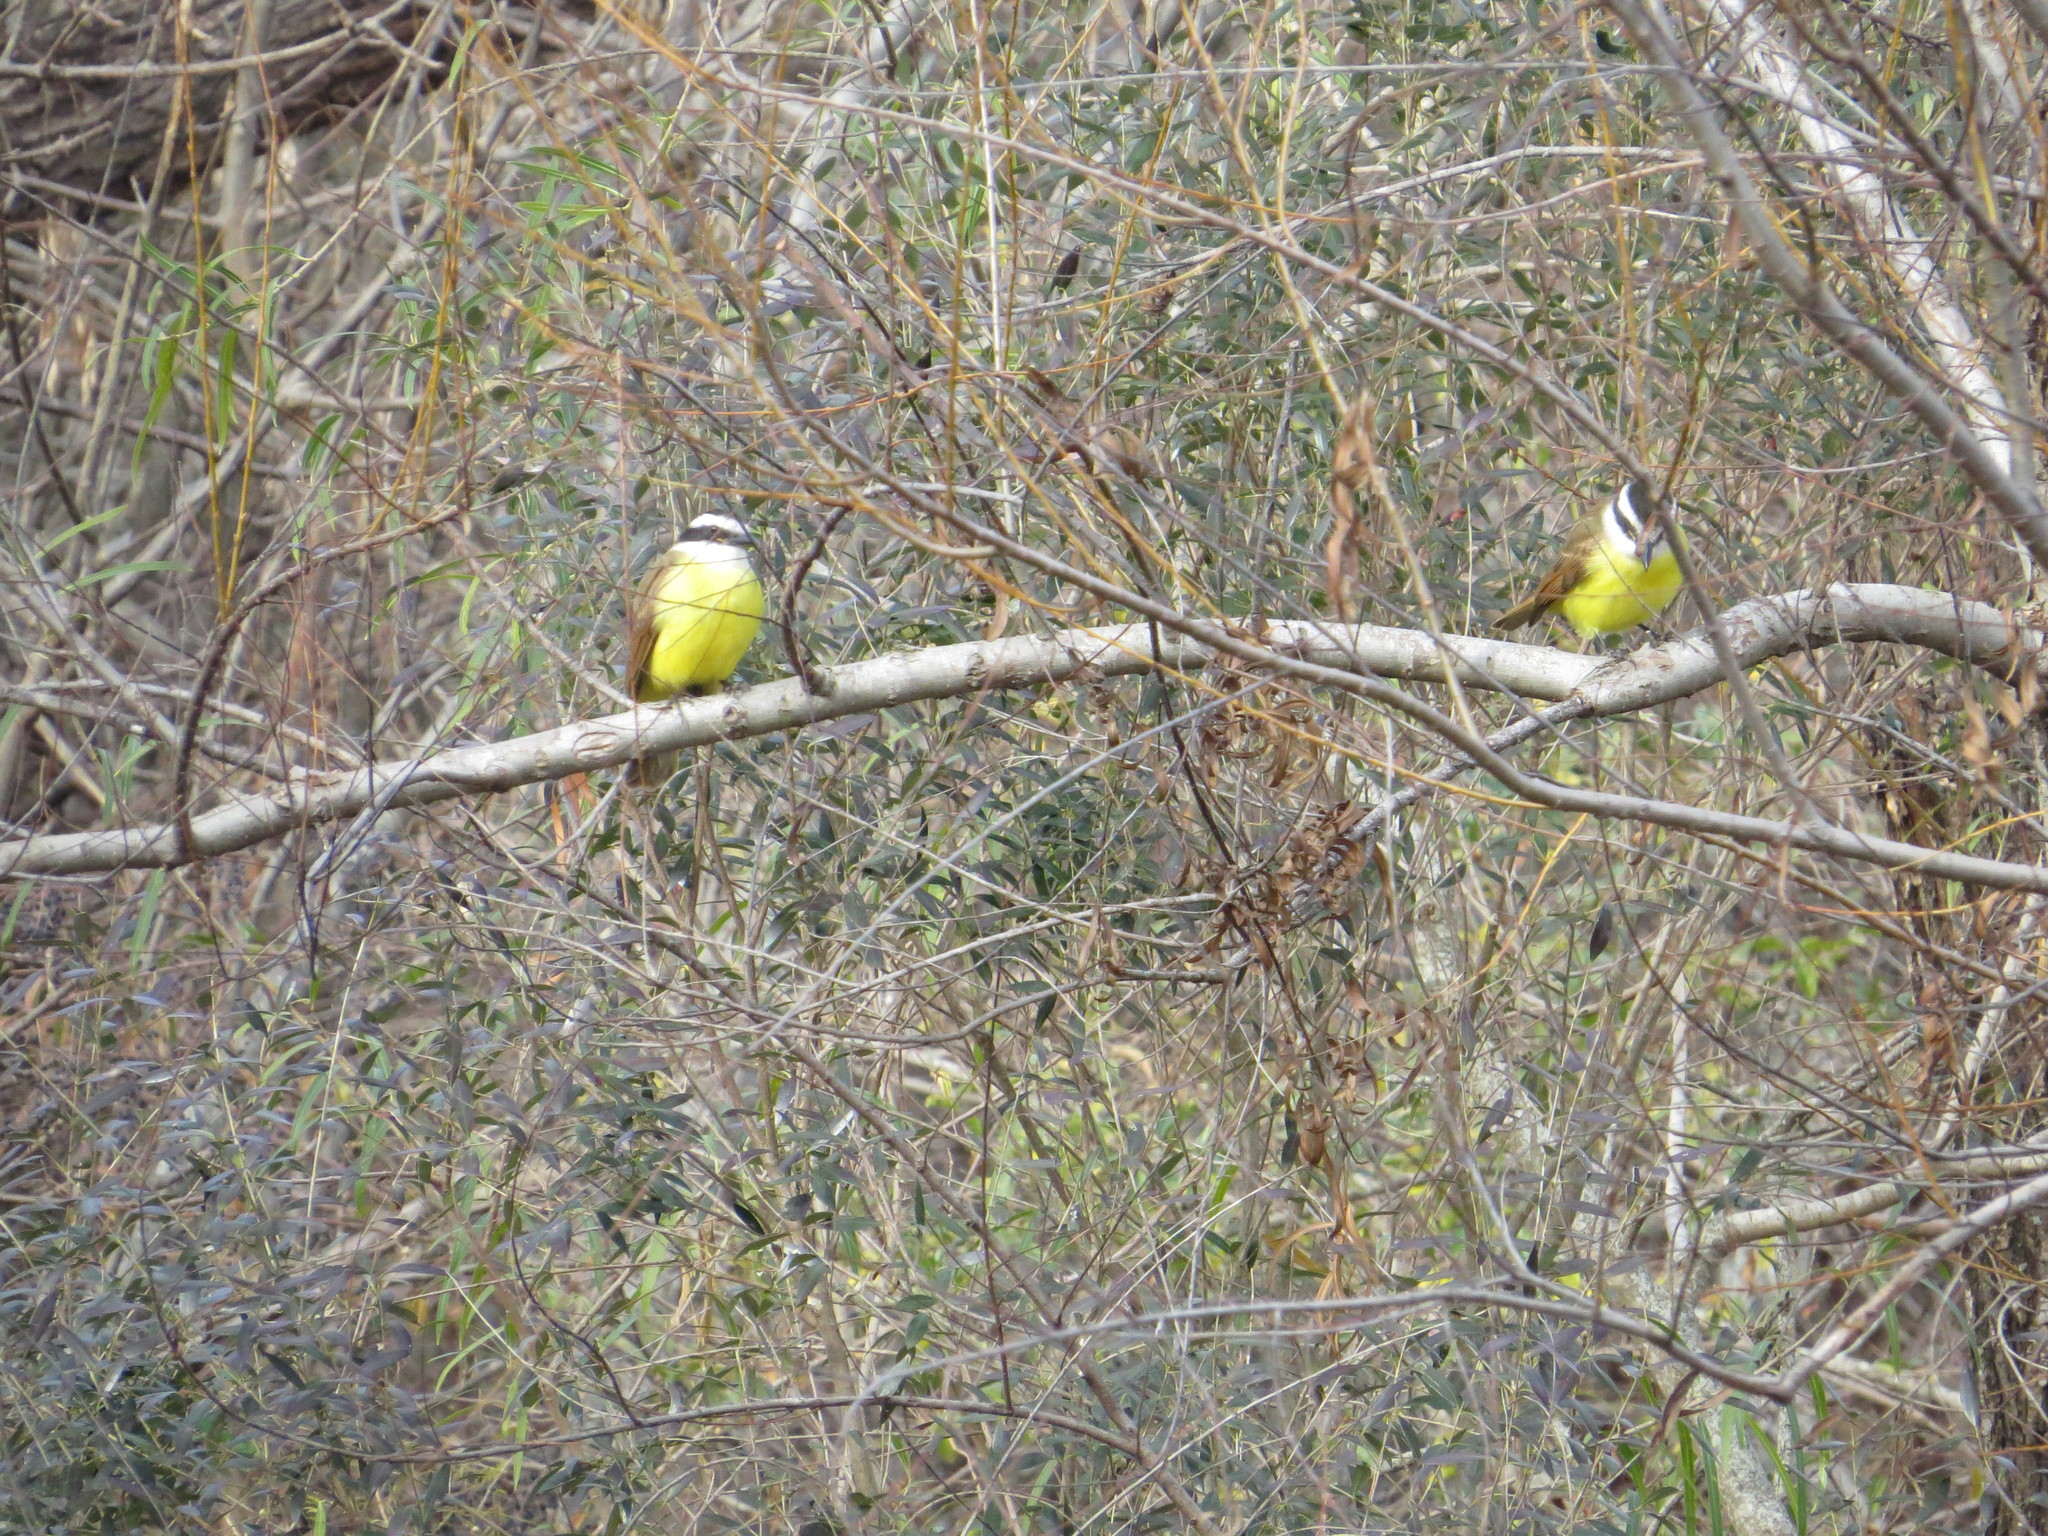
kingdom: Animalia
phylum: Chordata
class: Aves
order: Passeriformes
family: Tyrannidae
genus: Pitangus
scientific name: Pitangus sulphuratus
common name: Great kiskadee
